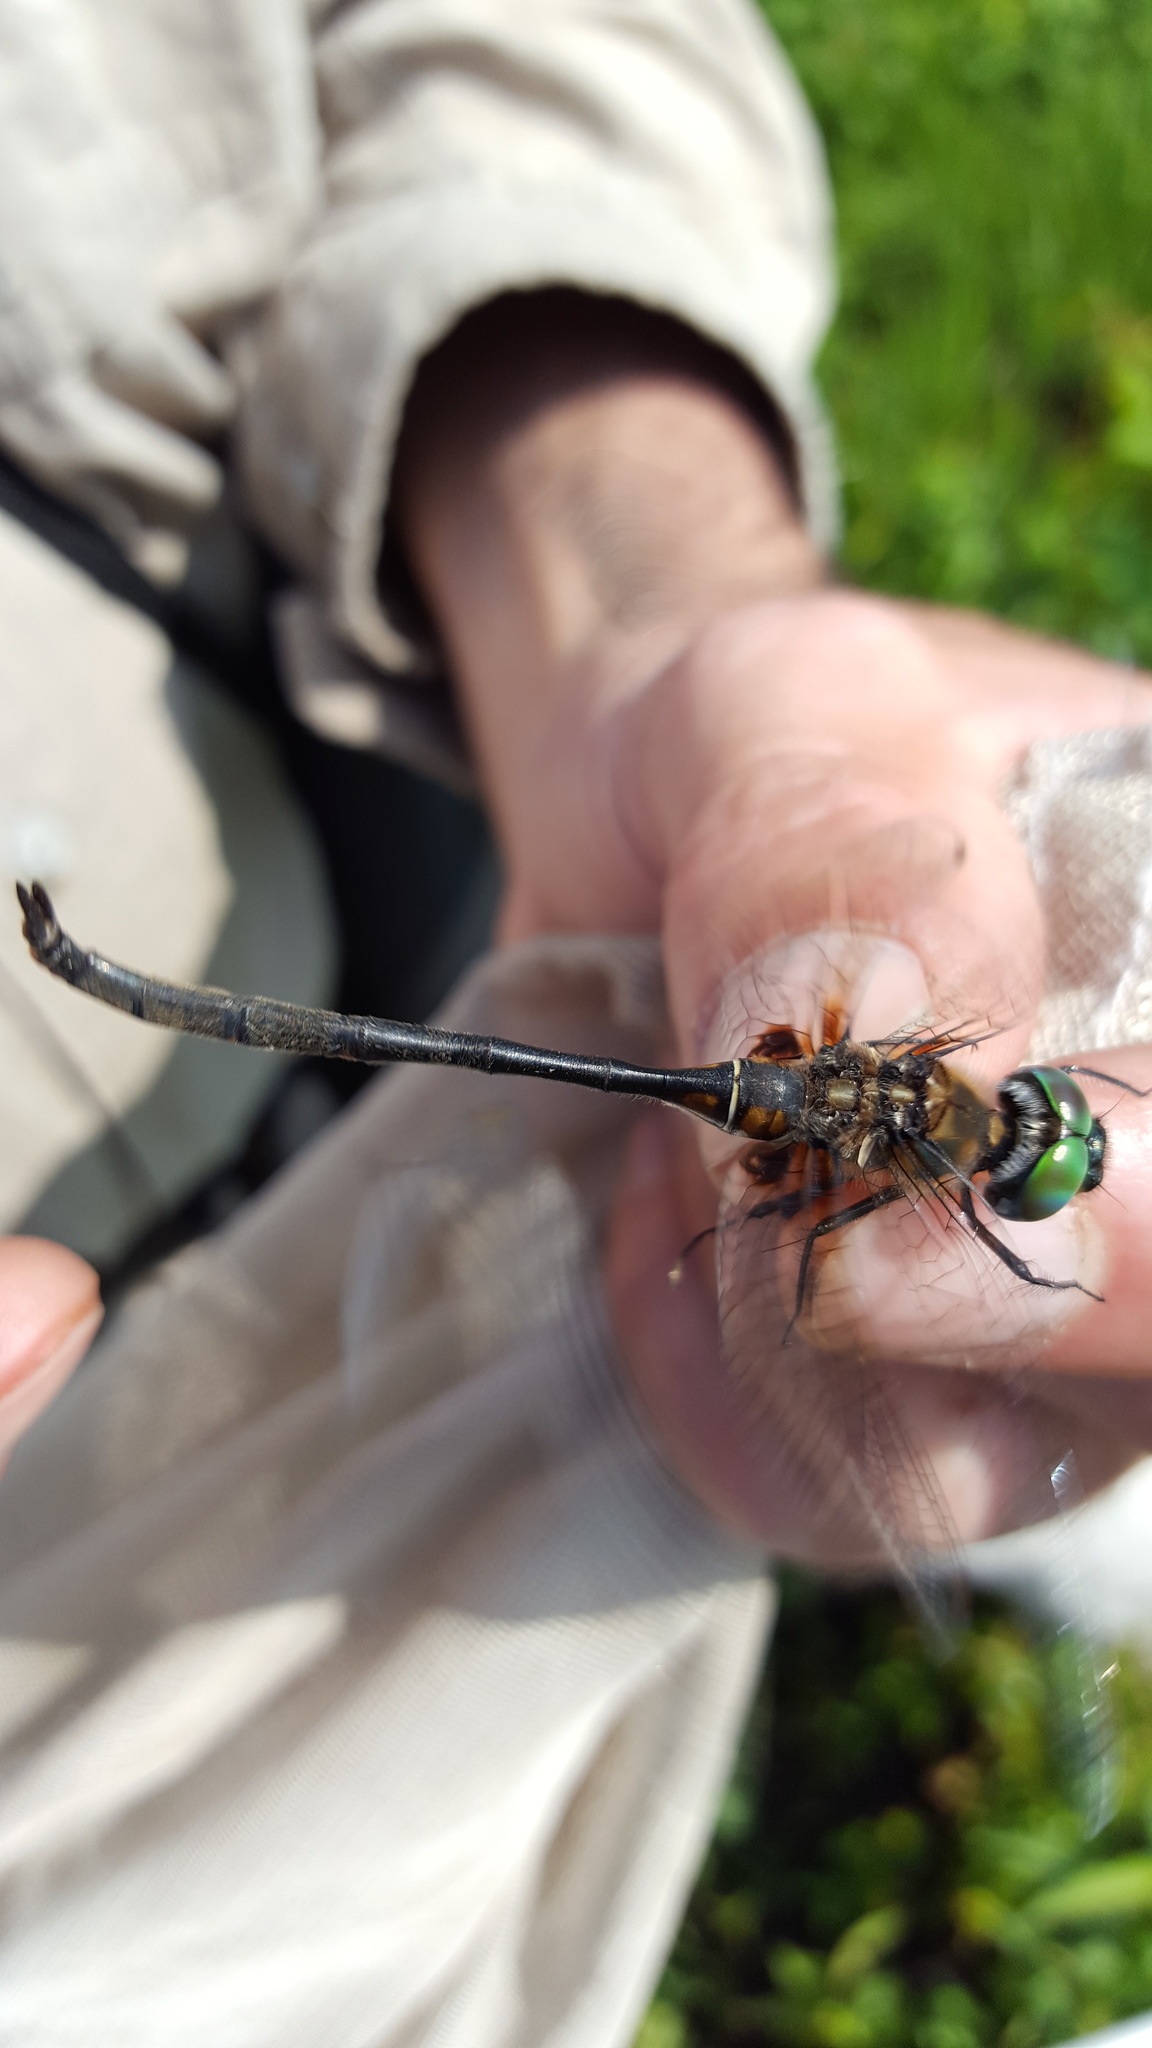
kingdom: Animalia
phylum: Arthropoda
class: Insecta
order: Odonata
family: Corduliidae
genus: Somatochlora
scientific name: Somatochlora franklini
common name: Delicate emerald
